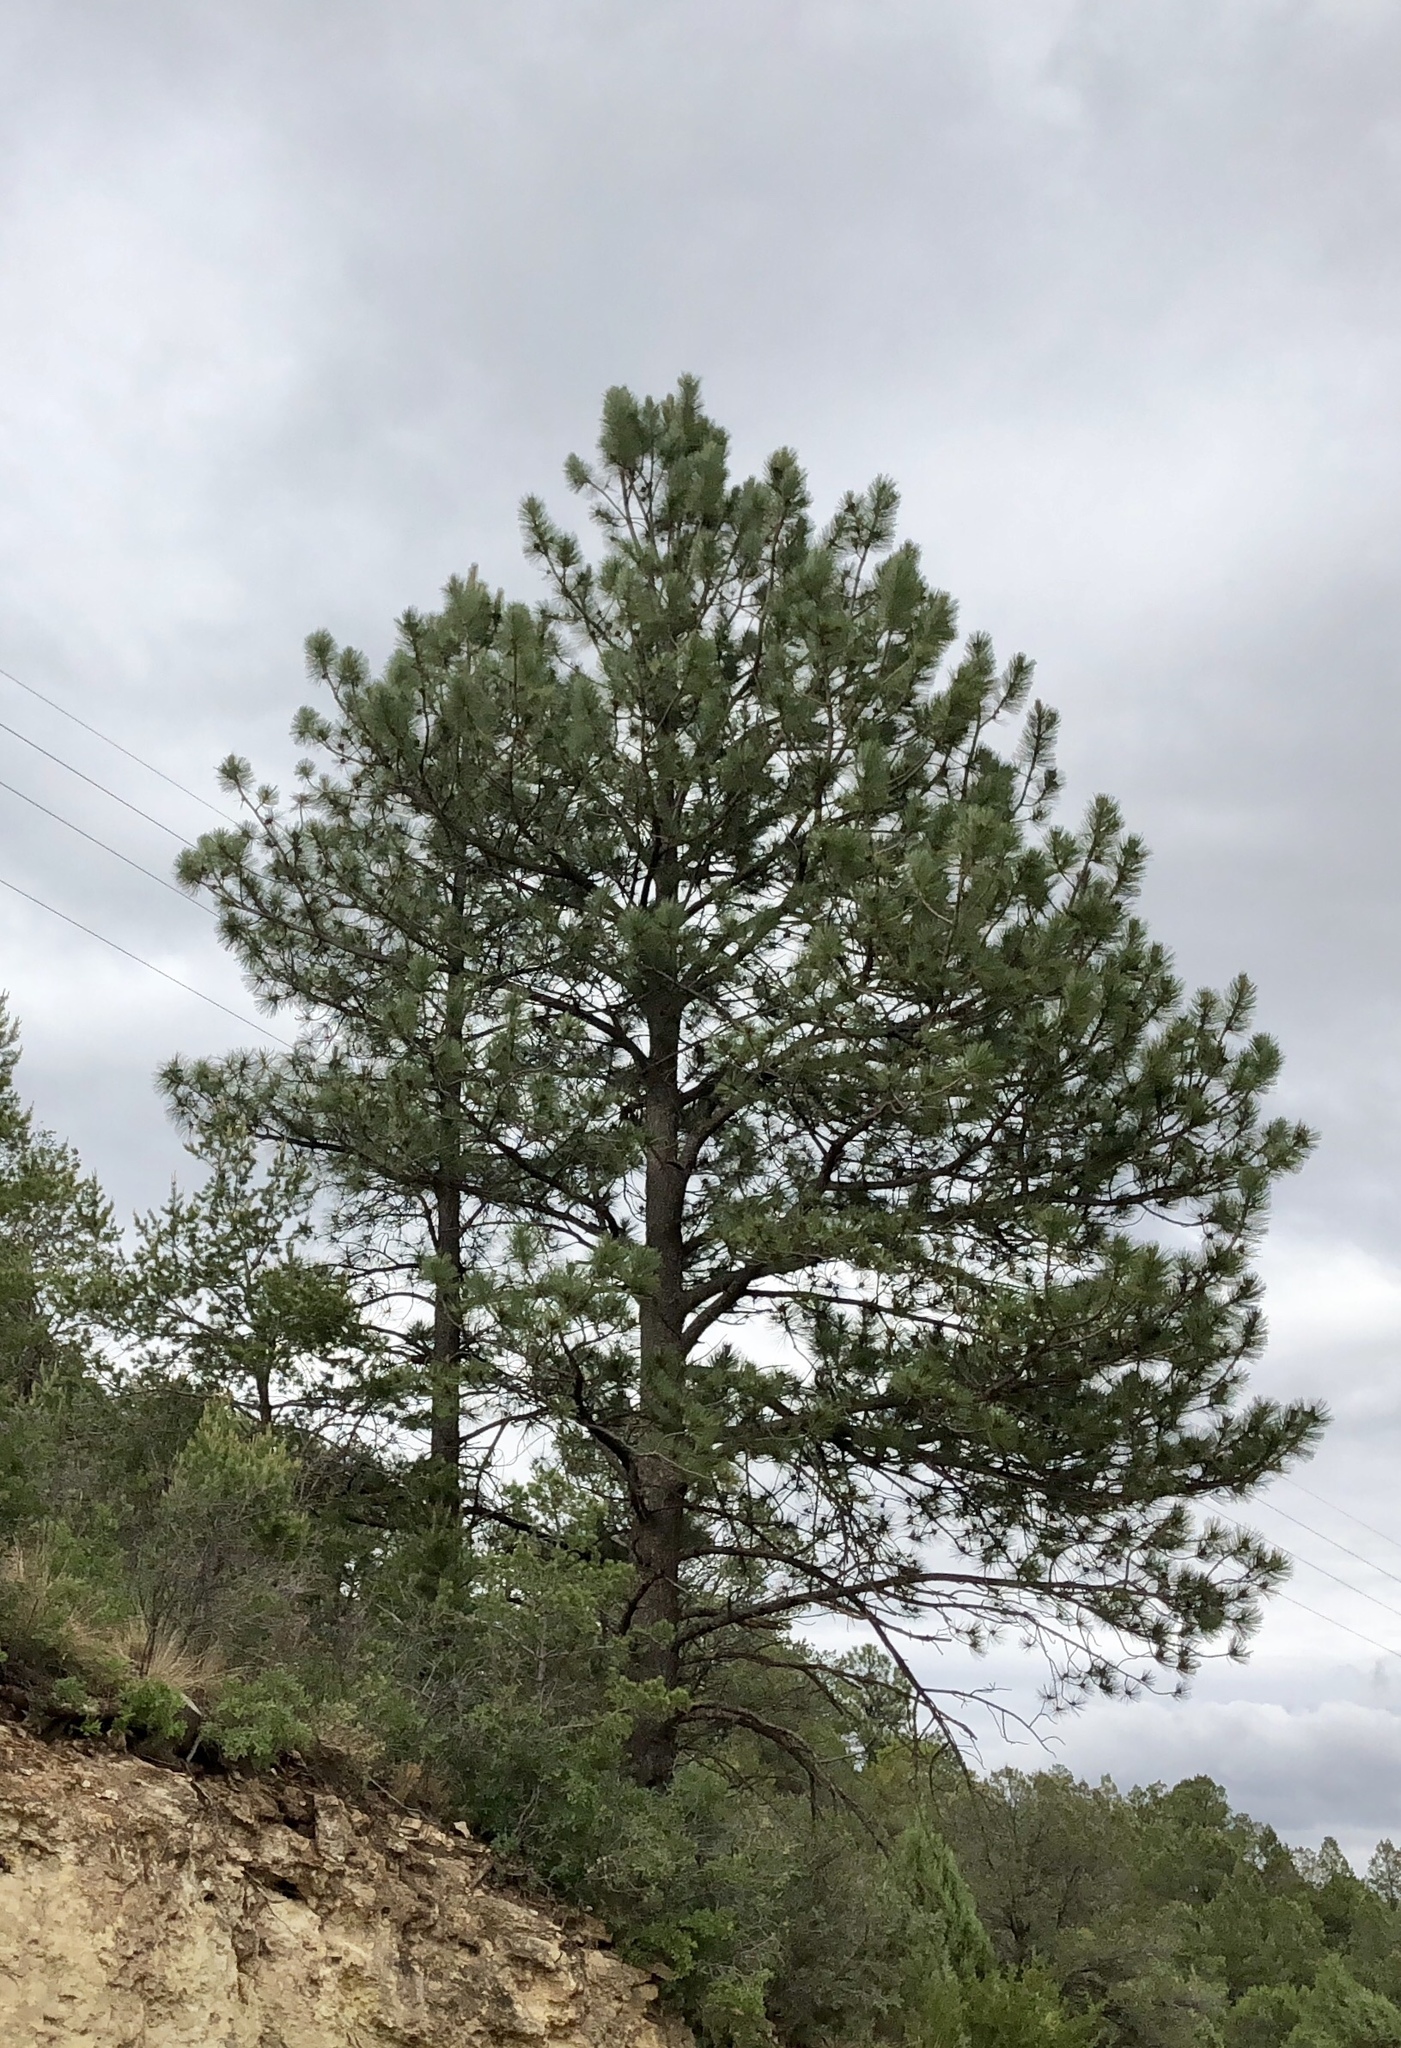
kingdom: Plantae
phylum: Tracheophyta
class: Pinopsida
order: Pinales
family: Pinaceae
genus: Pinus
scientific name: Pinus ponderosa
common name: Western yellow-pine
